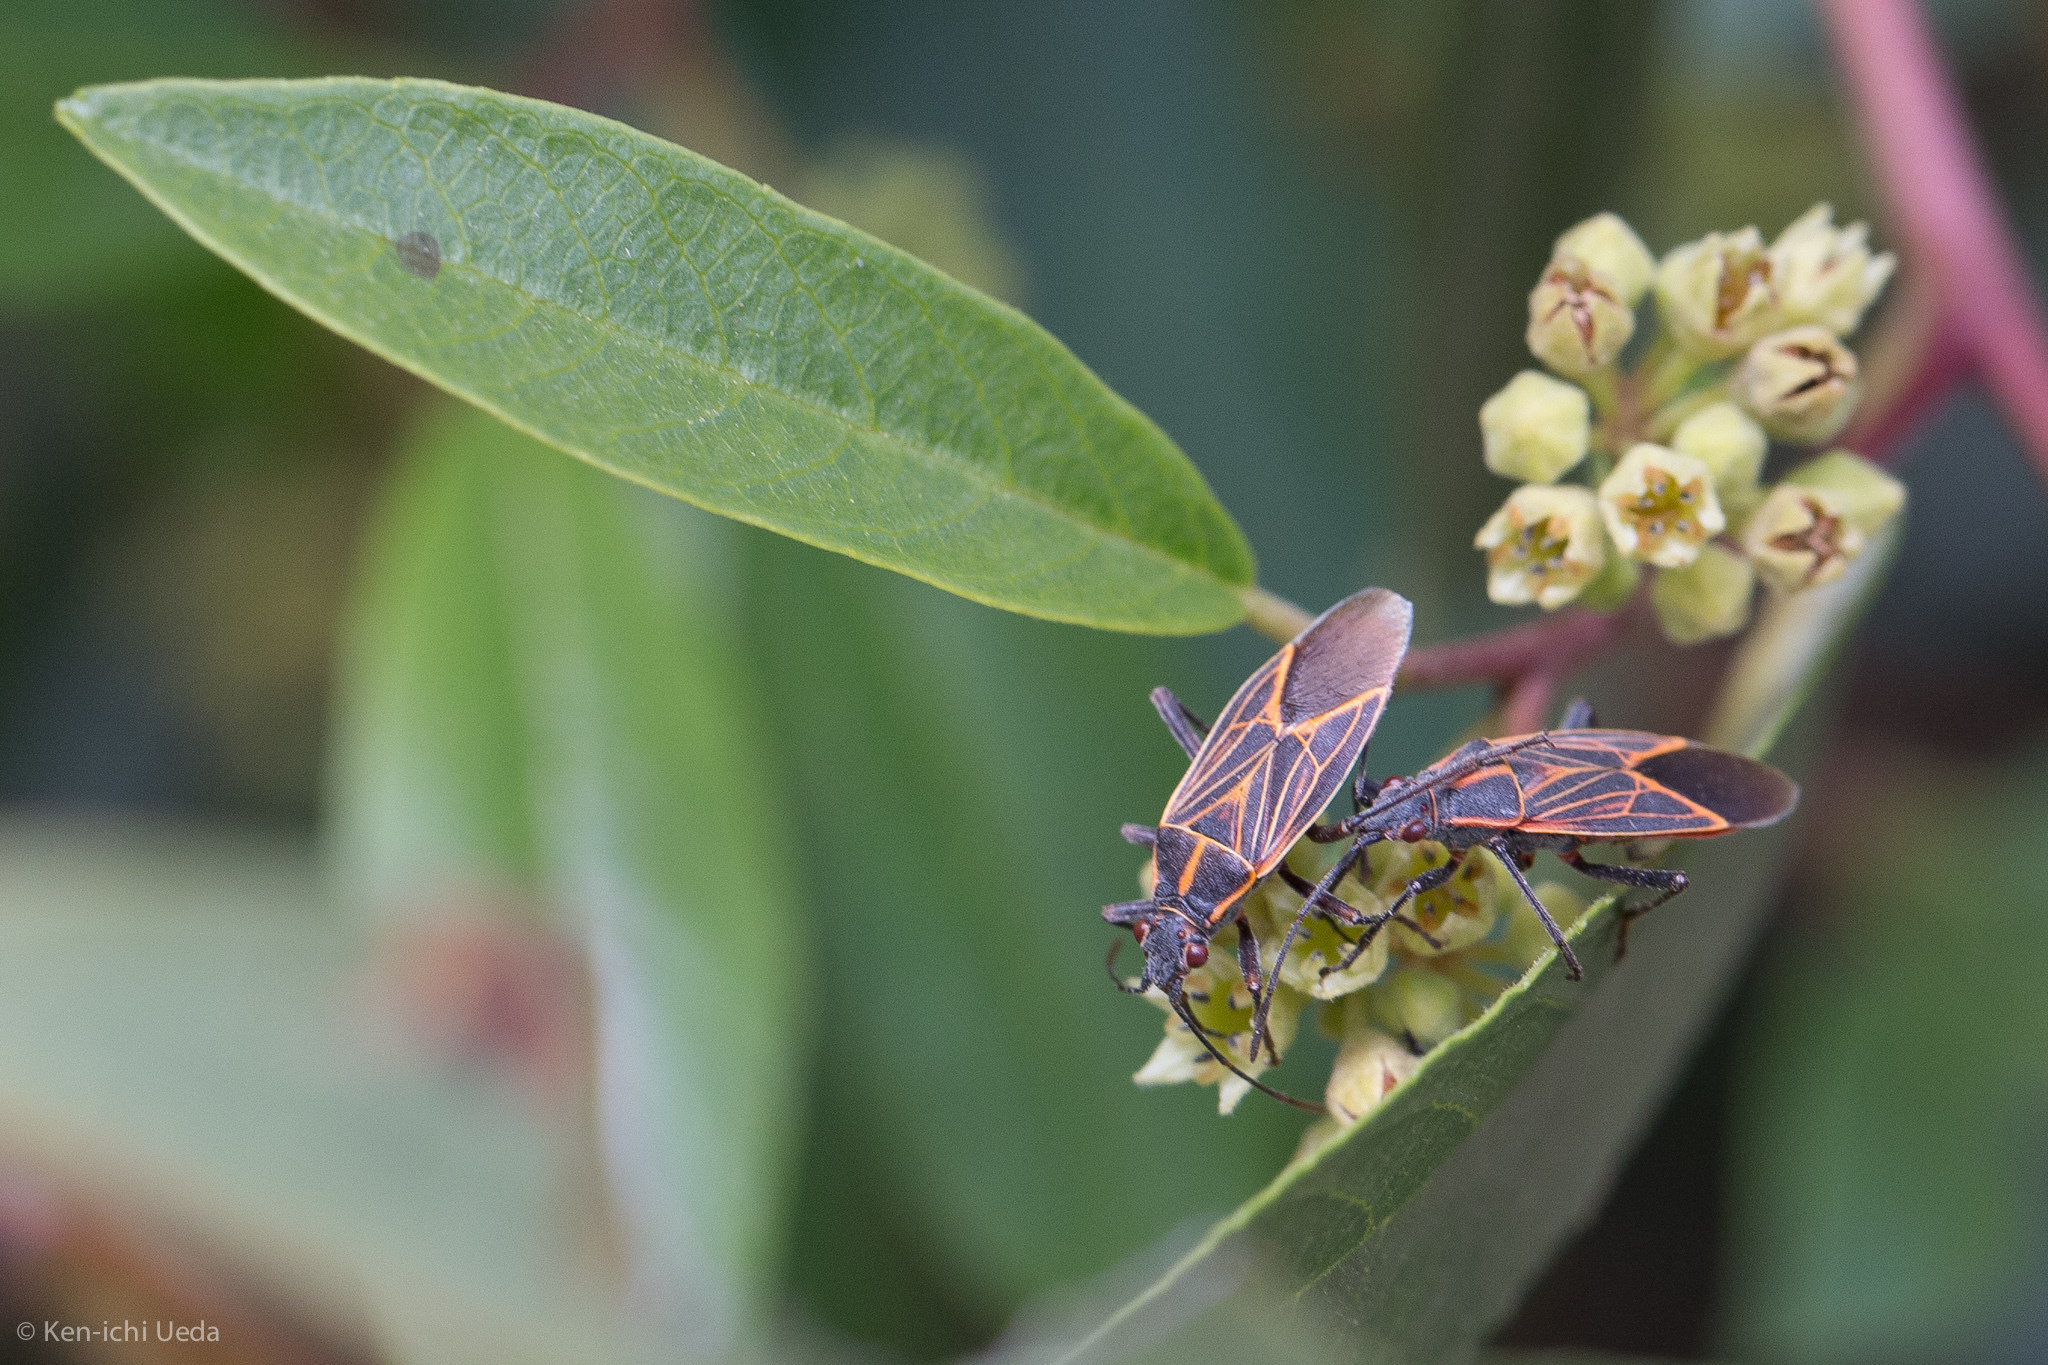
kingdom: Animalia
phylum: Arthropoda
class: Insecta
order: Hemiptera
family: Rhopalidae
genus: Boisea
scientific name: Boisea rubrolineata
